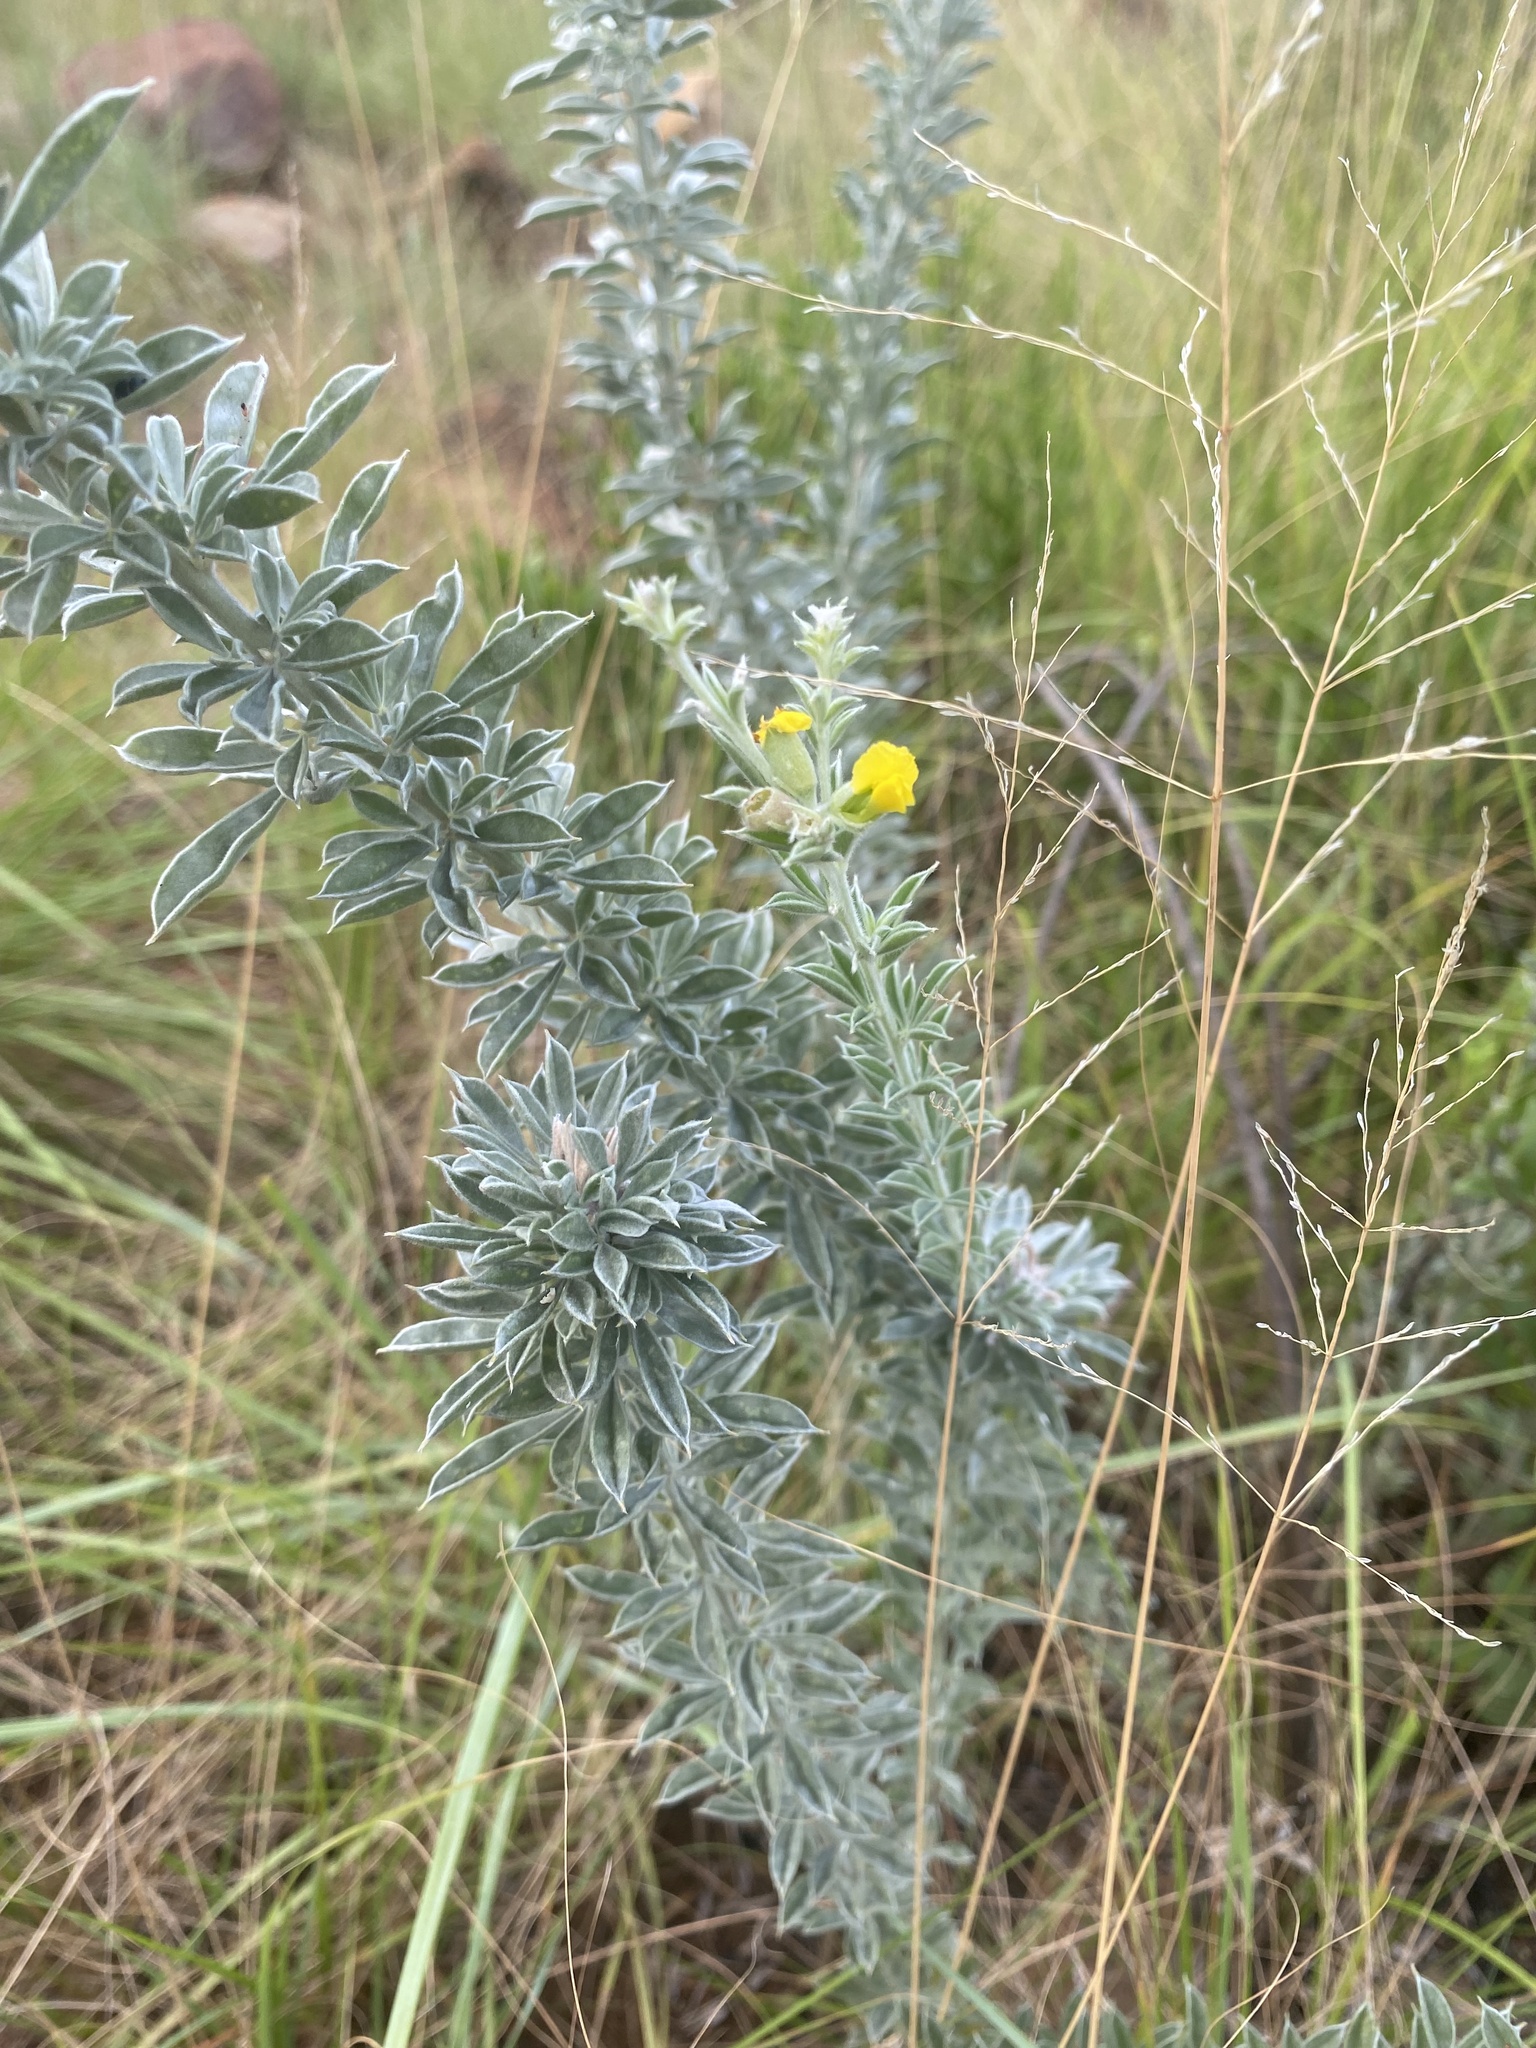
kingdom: Plantae
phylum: Tracheophyta
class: Magnoliopsida
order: Fabales
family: Fabaceae
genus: Pearsonia
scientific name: Pearsonia sessilifolia
